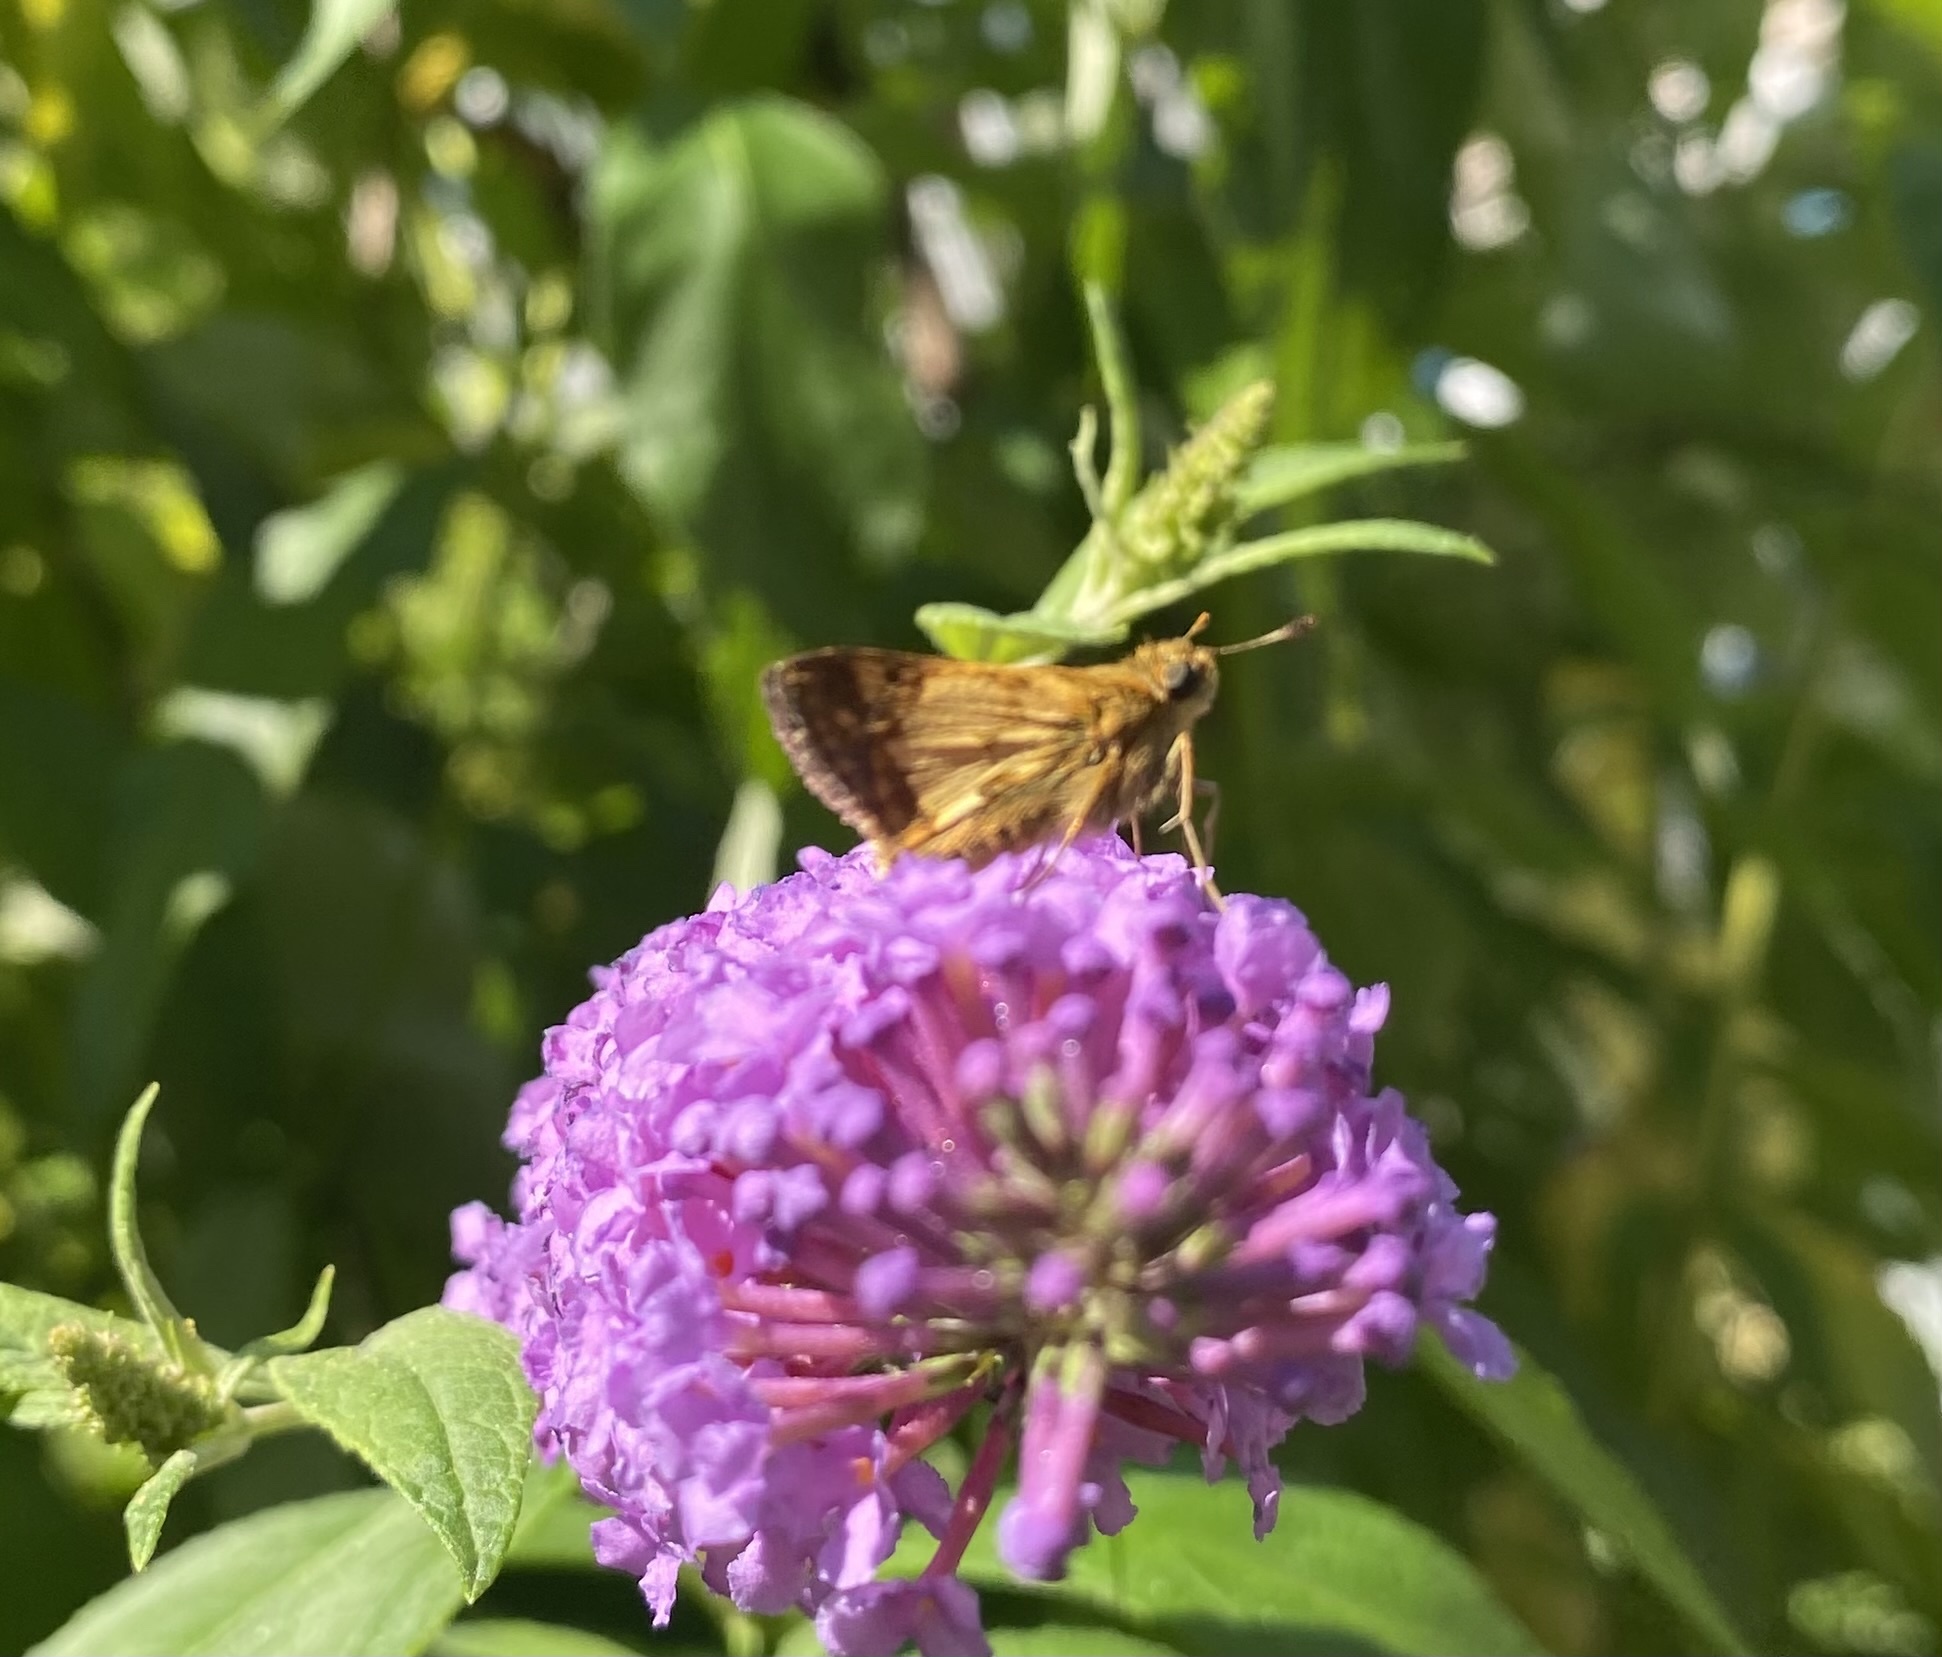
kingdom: Animalia
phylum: Arthropoda
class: Insecta
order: Lepidoptera
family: Hesperiidae
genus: Polites
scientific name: Polites coras
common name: Peck's skipper
